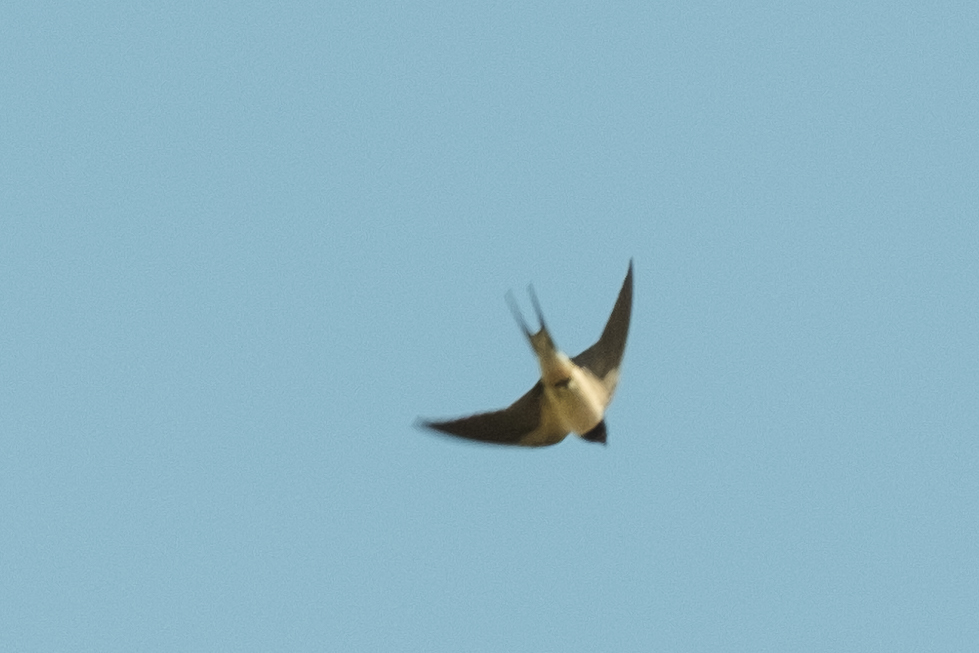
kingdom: Animalia
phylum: Chordata
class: Aves
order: Passeriformes
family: Hirundinidae
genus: Hirundo
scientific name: Hirundo rustica
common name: Barn swallow
